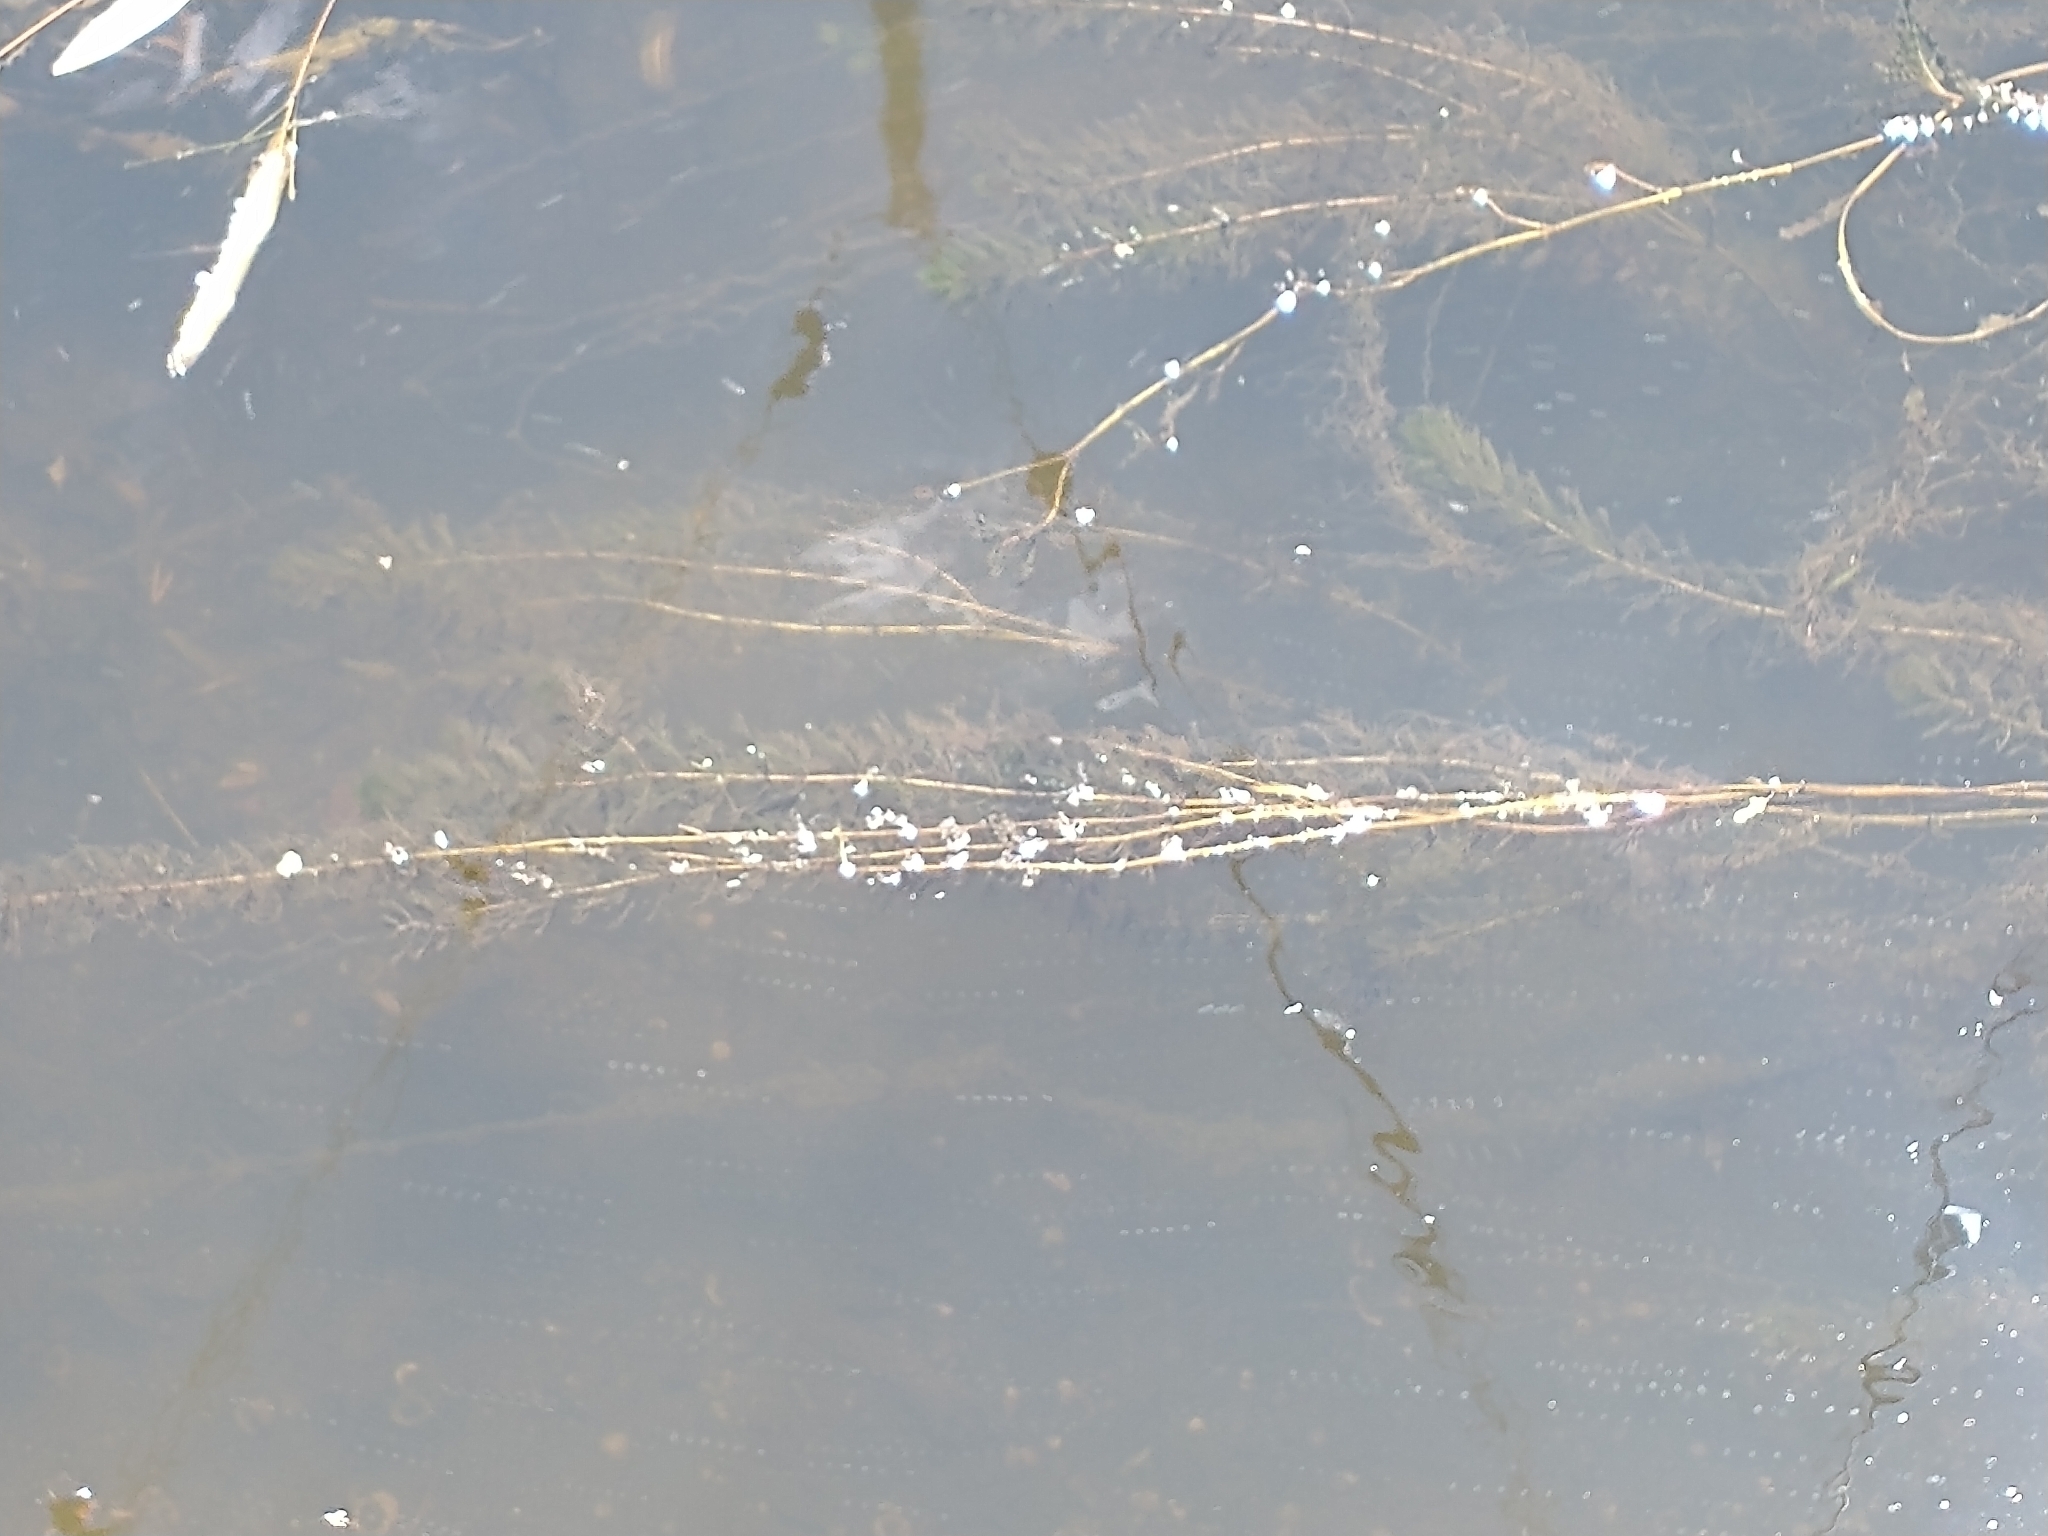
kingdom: Plantae
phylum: Tracheophyta
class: Magnoliopsida
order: Saxifragales
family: Haloragaceae
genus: Myriophyllum
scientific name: Myriophyllum spicatum
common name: Spiked water-milfoil
